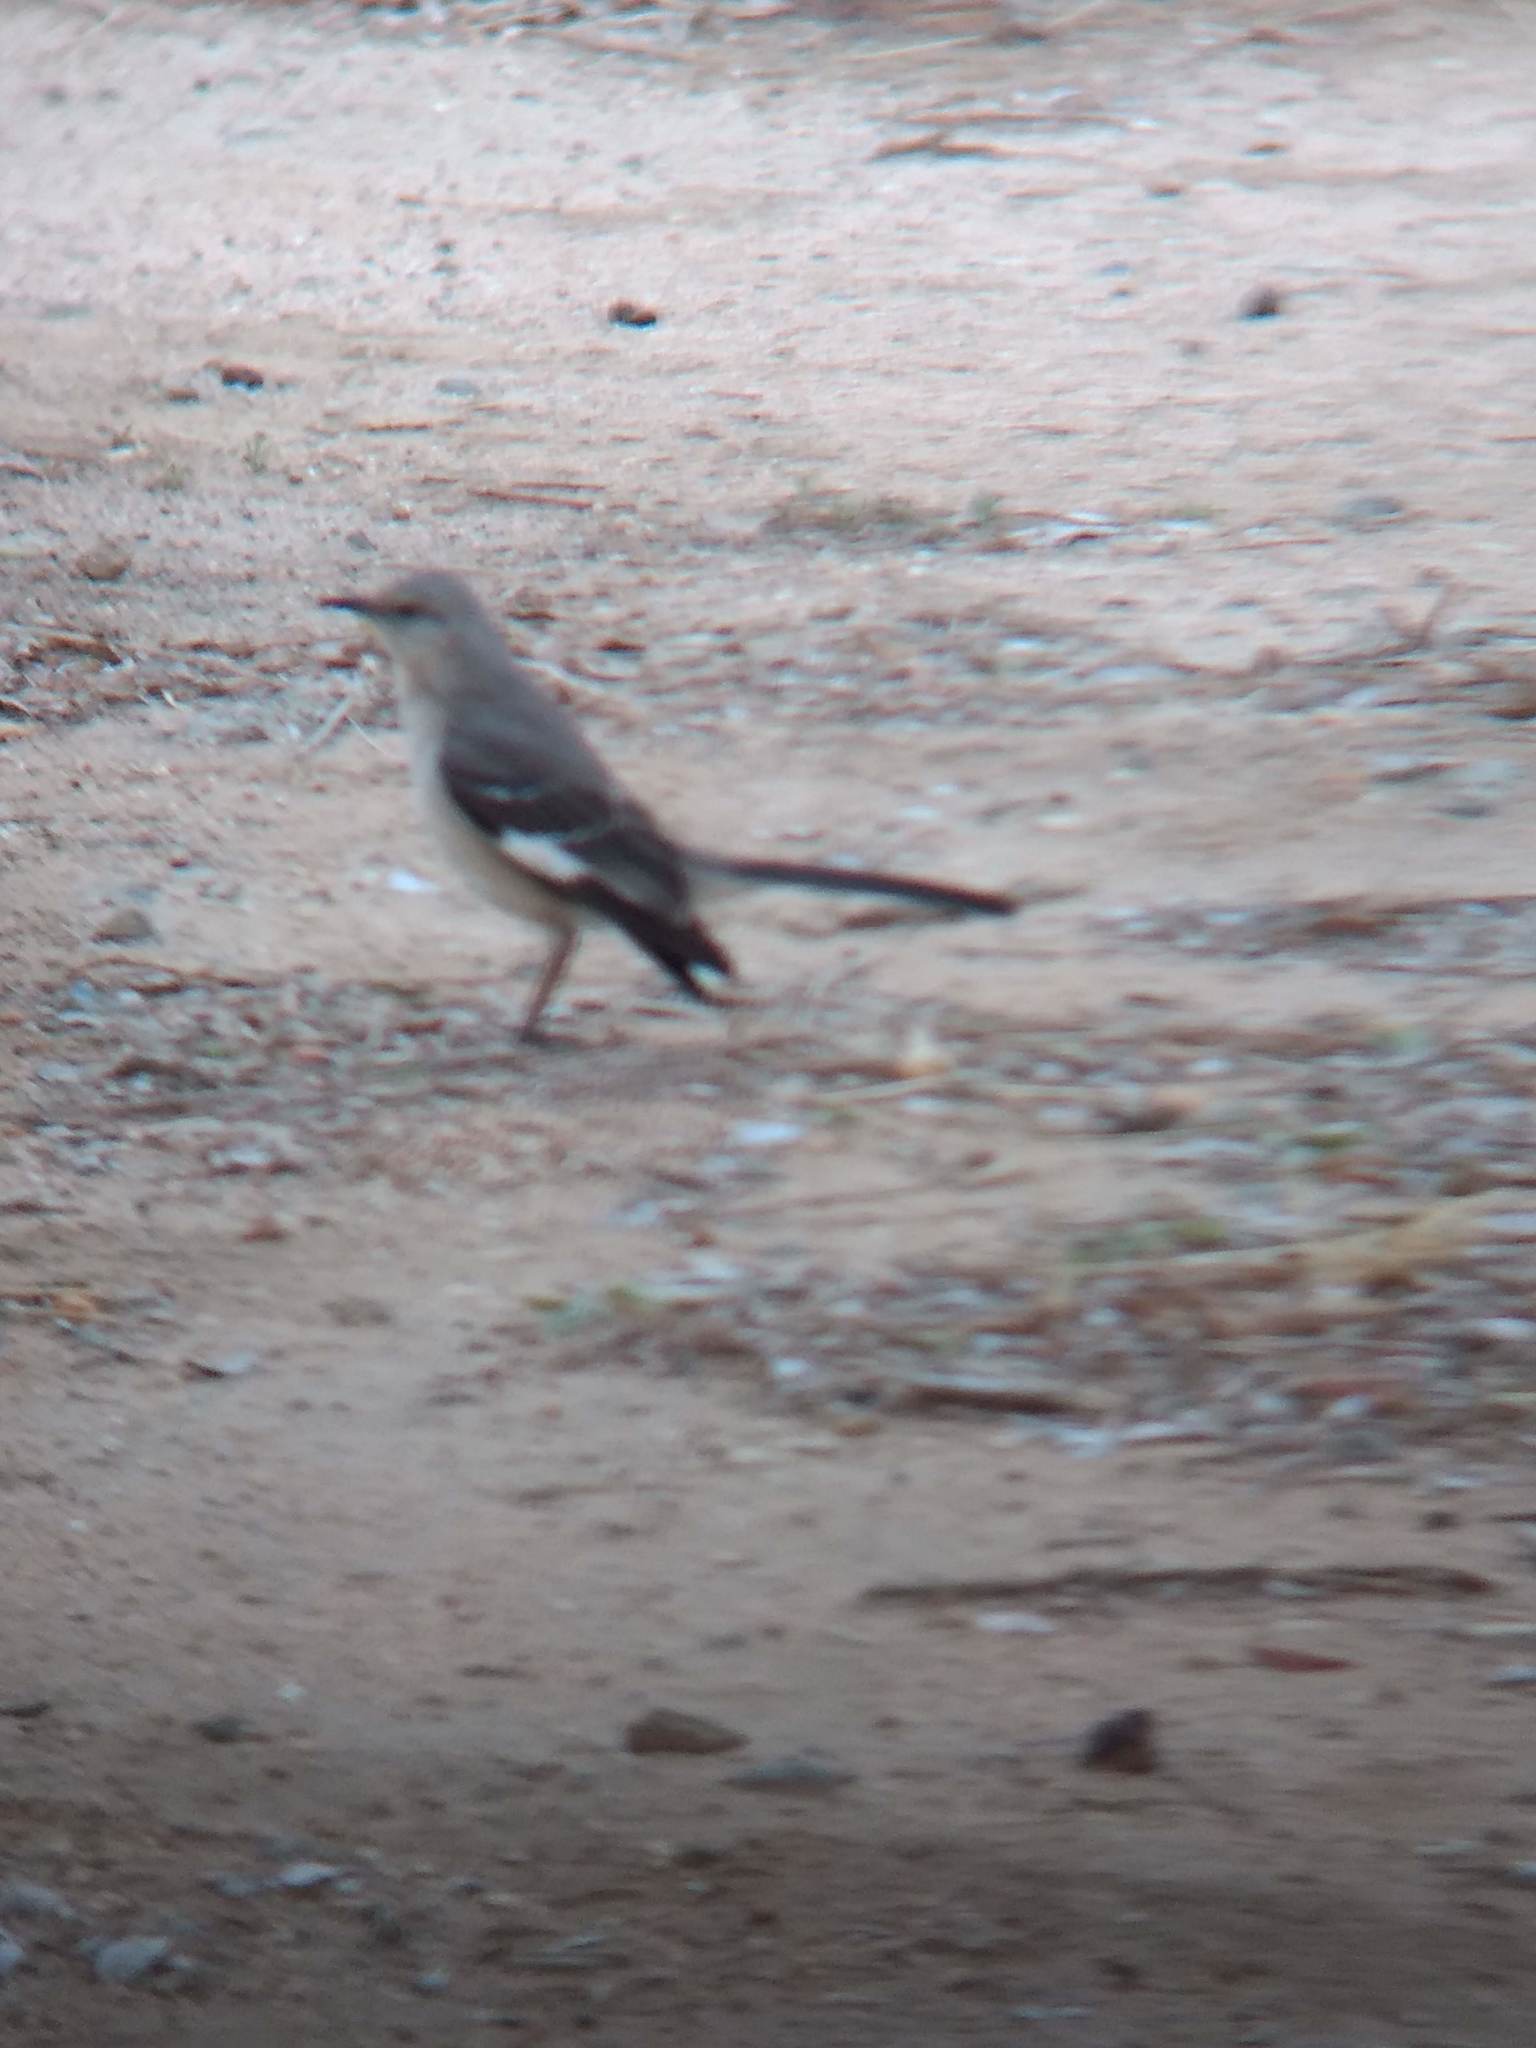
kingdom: Animalia
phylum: Chordata
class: Aves
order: Passeriformes
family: Mimidae
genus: Mimus
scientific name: Mimus polyglottos
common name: Northern mockingbird
